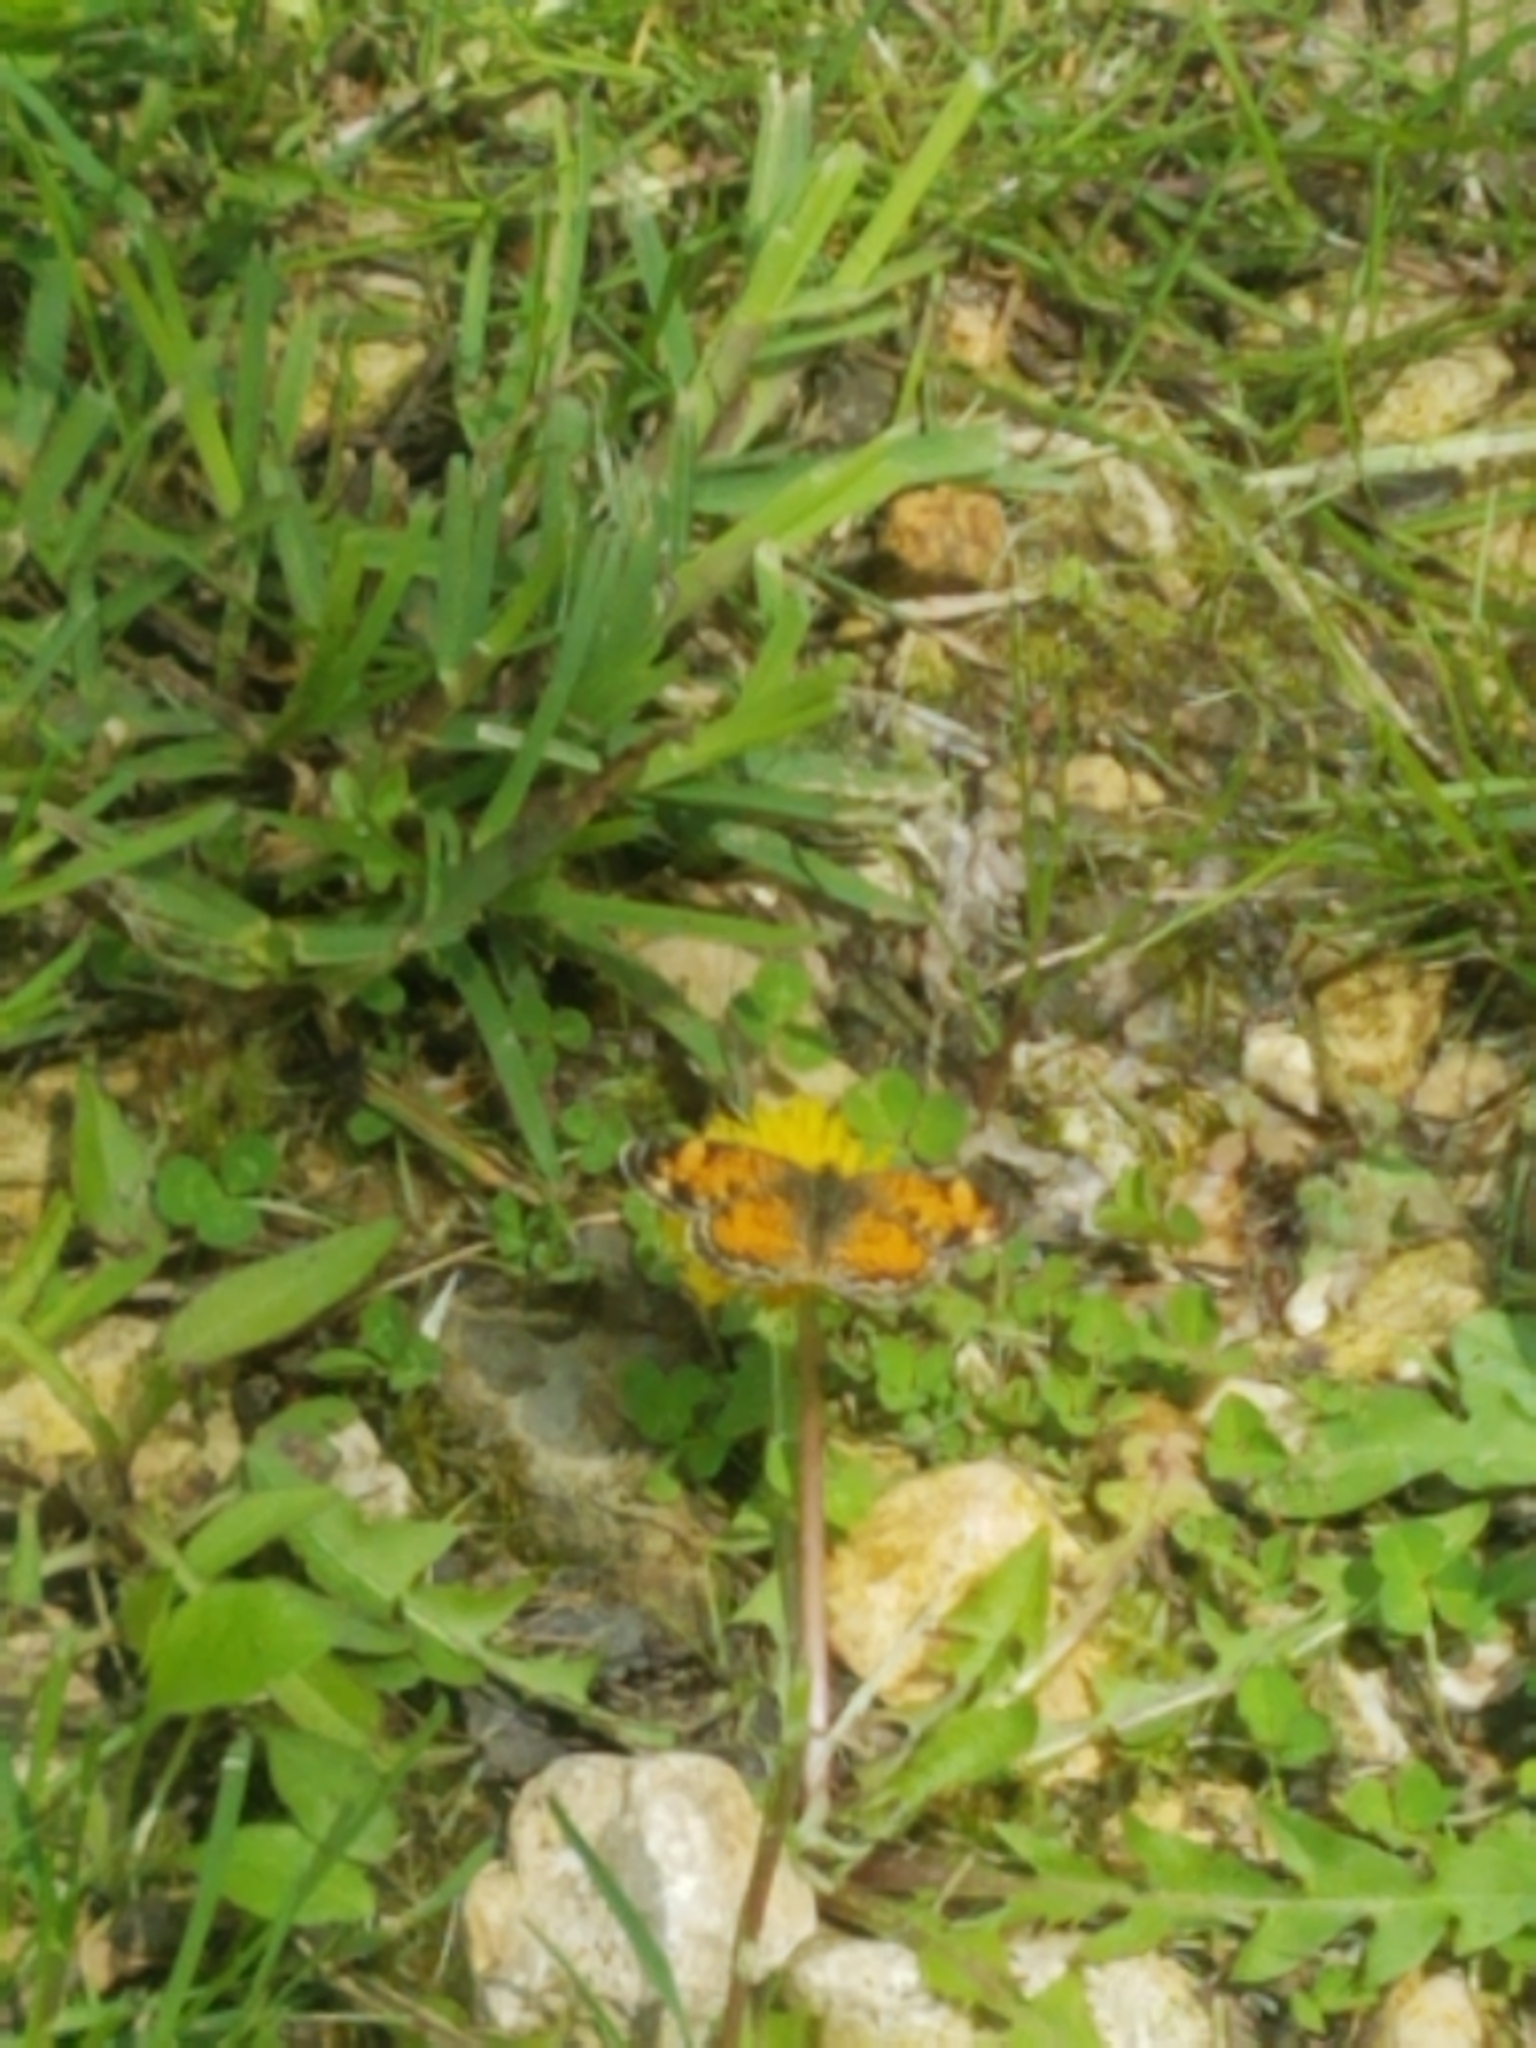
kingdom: Animalia
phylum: Arthropoda
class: Insecta
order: Lepidoptera
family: Nymphalidae
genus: Phyciodes
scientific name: Phyciodes tharos
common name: Pearl crescent
